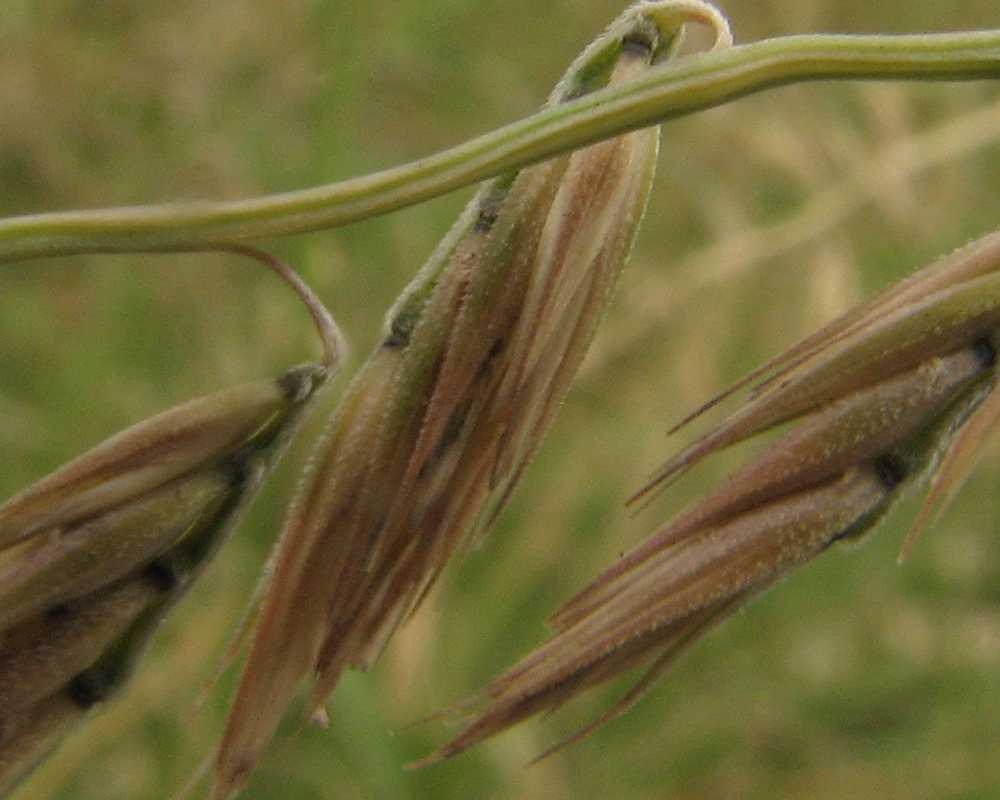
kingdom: Plantae
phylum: Tracheophyta
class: Liliopsida
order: Poales
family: Poaceae
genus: Bouteloua
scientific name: Bouteloua curtipendula
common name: Side-oats grama
